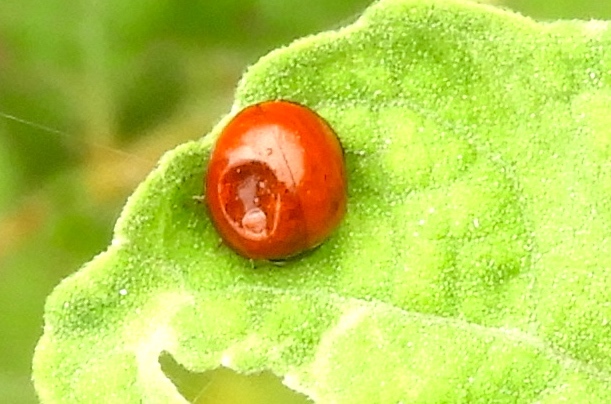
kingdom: Animalia
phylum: Arthropoda
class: Insecta
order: Coleoptera
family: Coccinellidae
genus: Cycloneda
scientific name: Cycloneda
